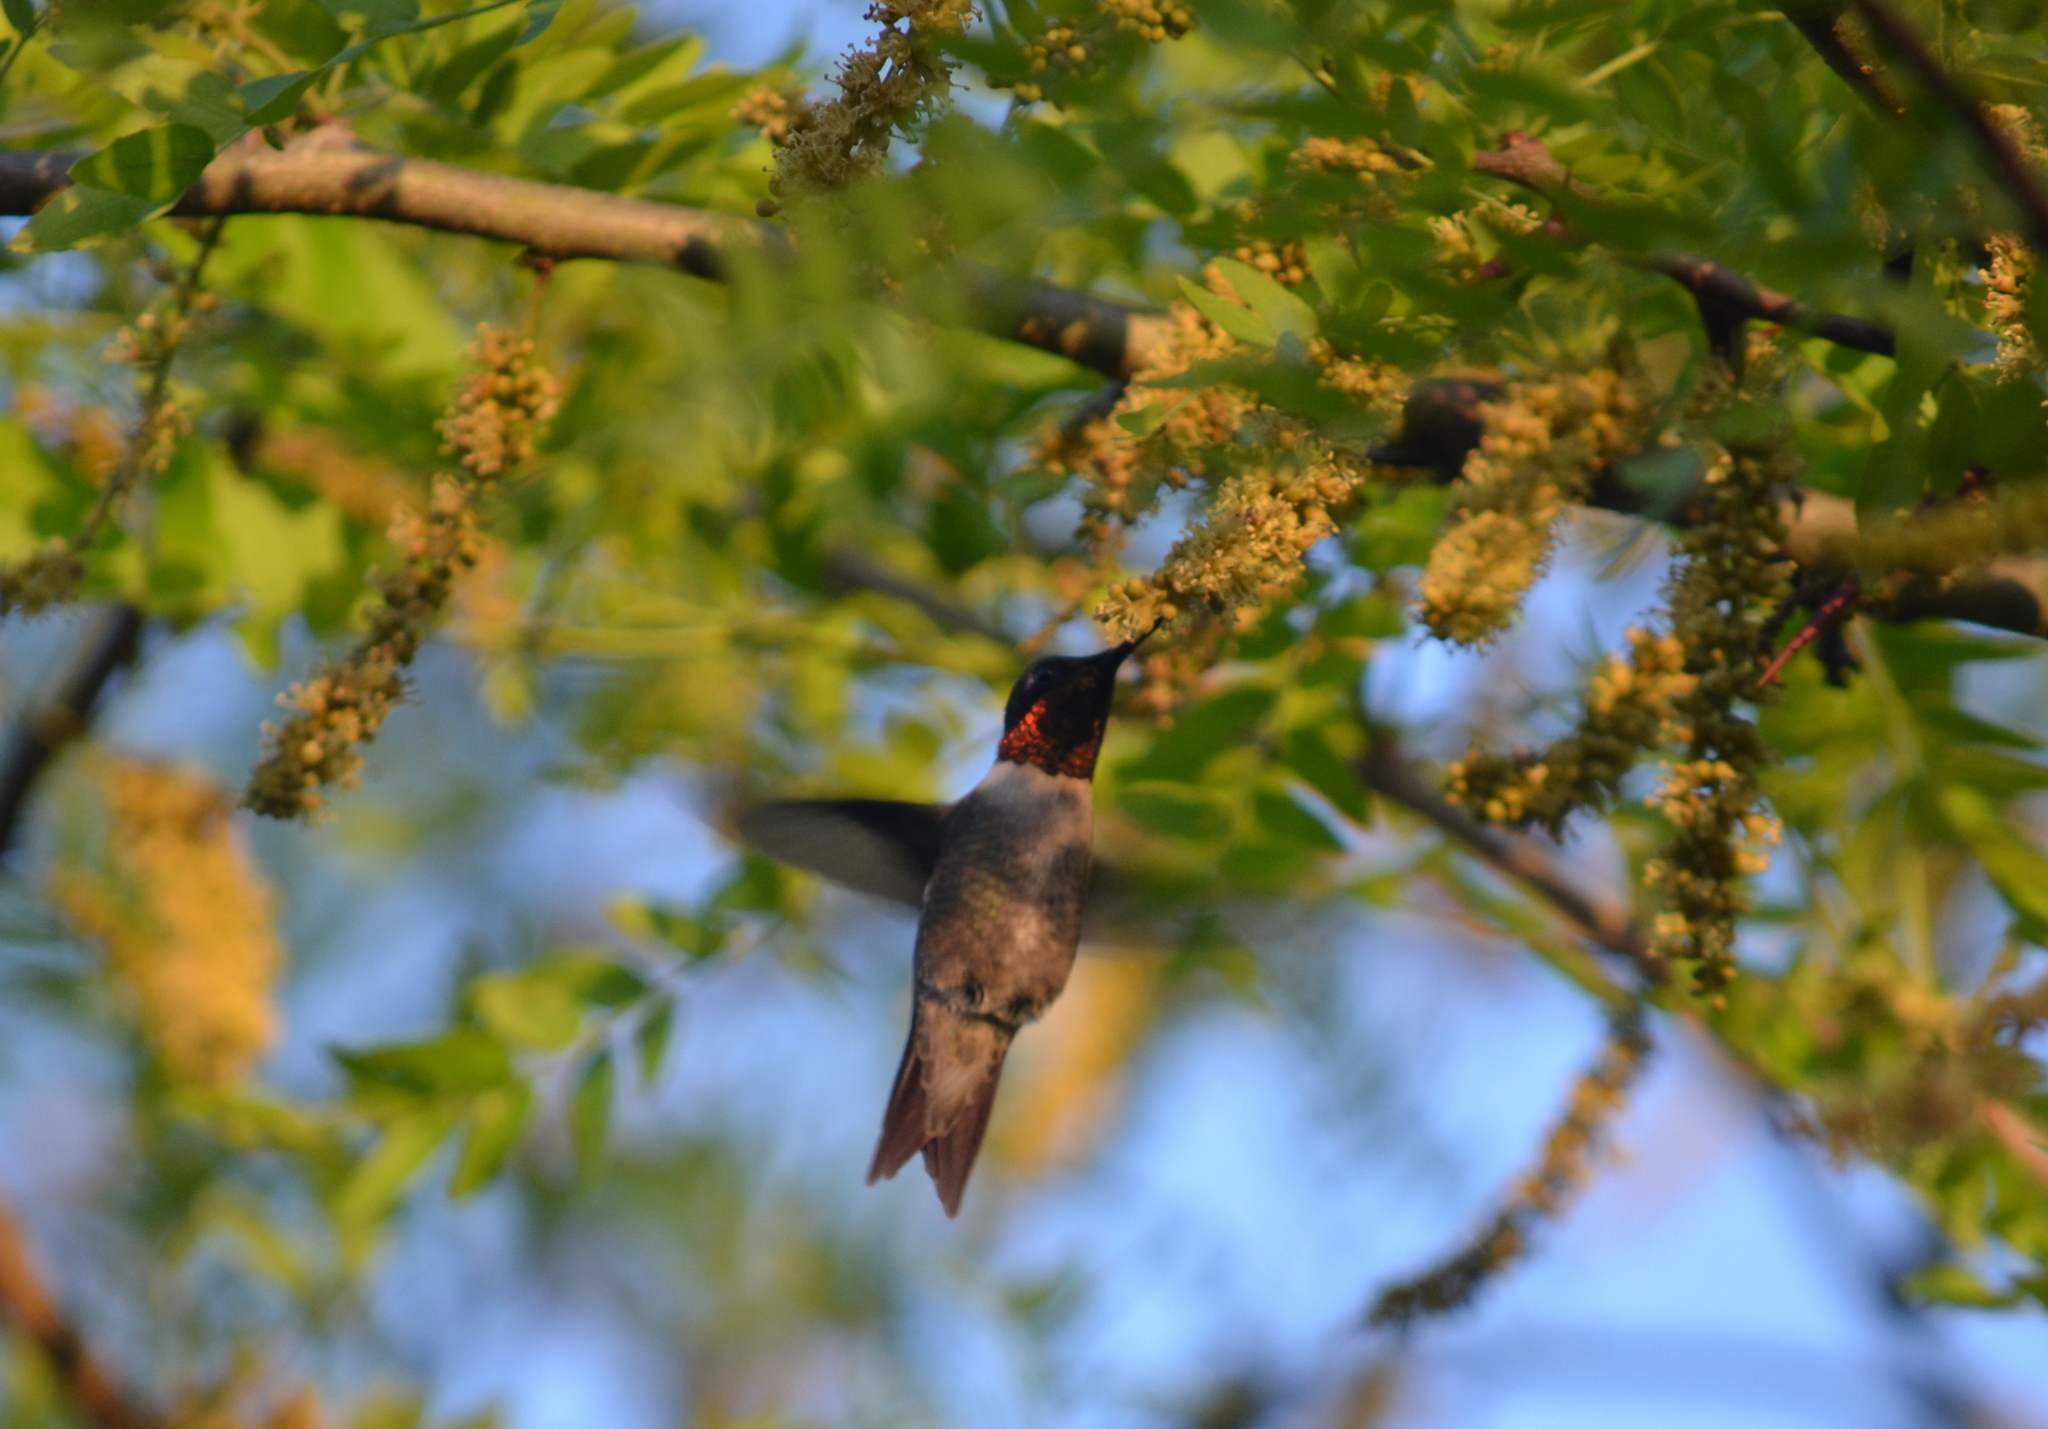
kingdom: Animalia
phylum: Chordata
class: Aves
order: Apodiformes
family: Trochilidae
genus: Archilochus
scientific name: Archilochus colubris
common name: Ruby-throated hummingbird
